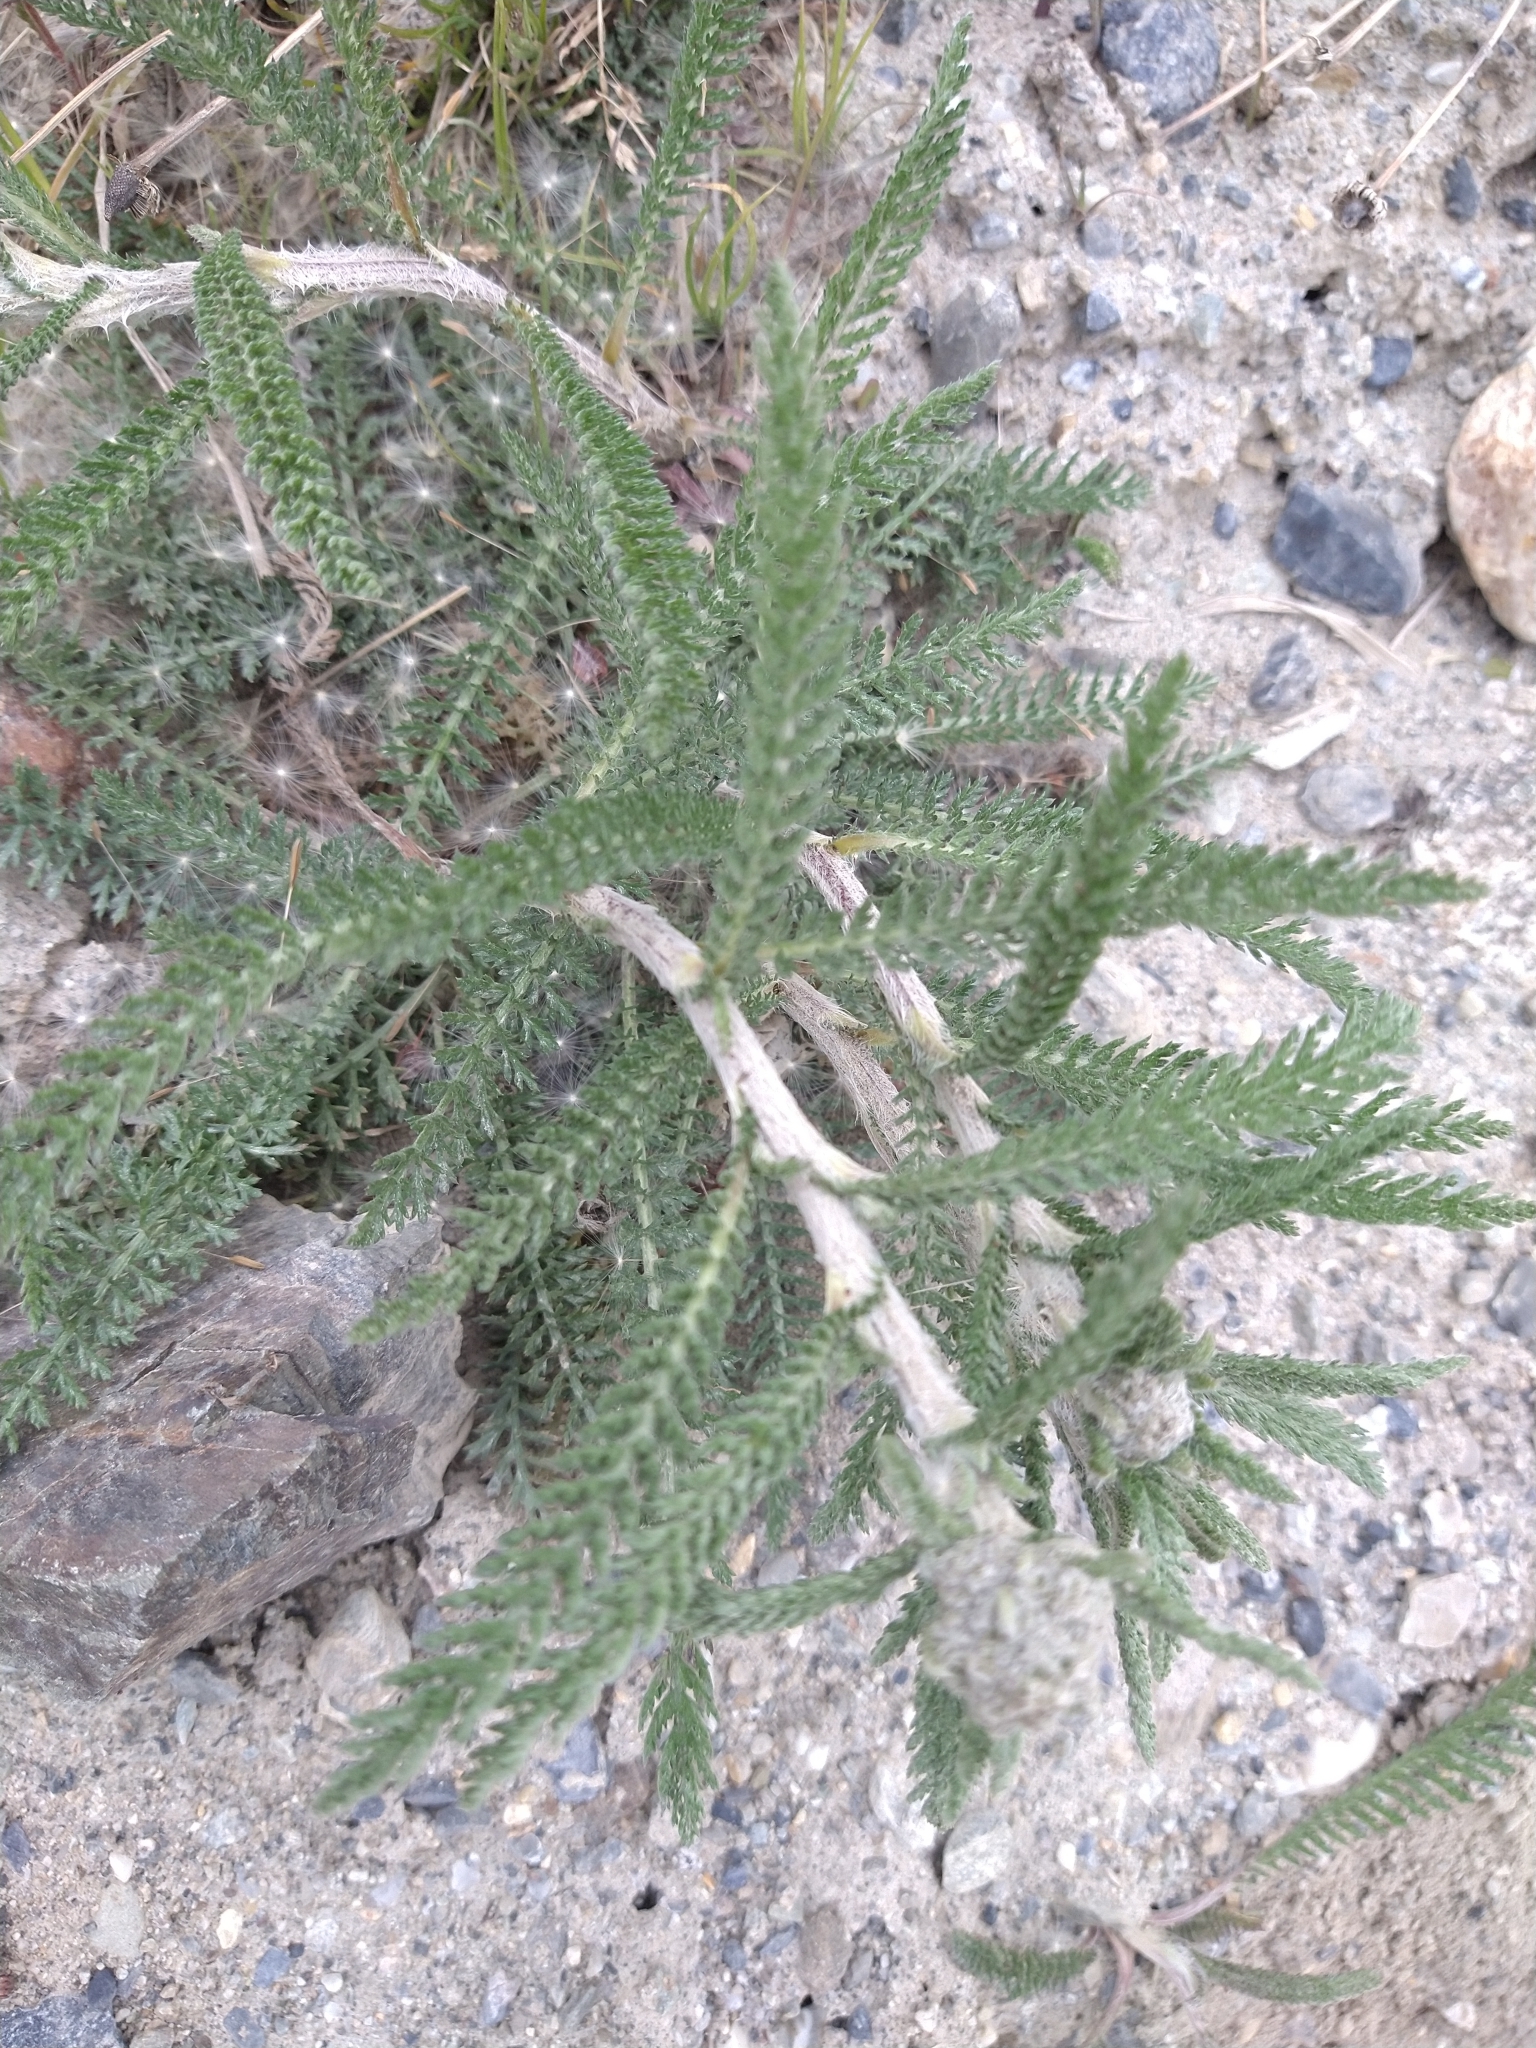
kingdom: Plantae
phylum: Tracheophyta
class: Magnoliopsida
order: Asterales
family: Asteraceae
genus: Achillea
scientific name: Achillea millefolium
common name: Yarrow
